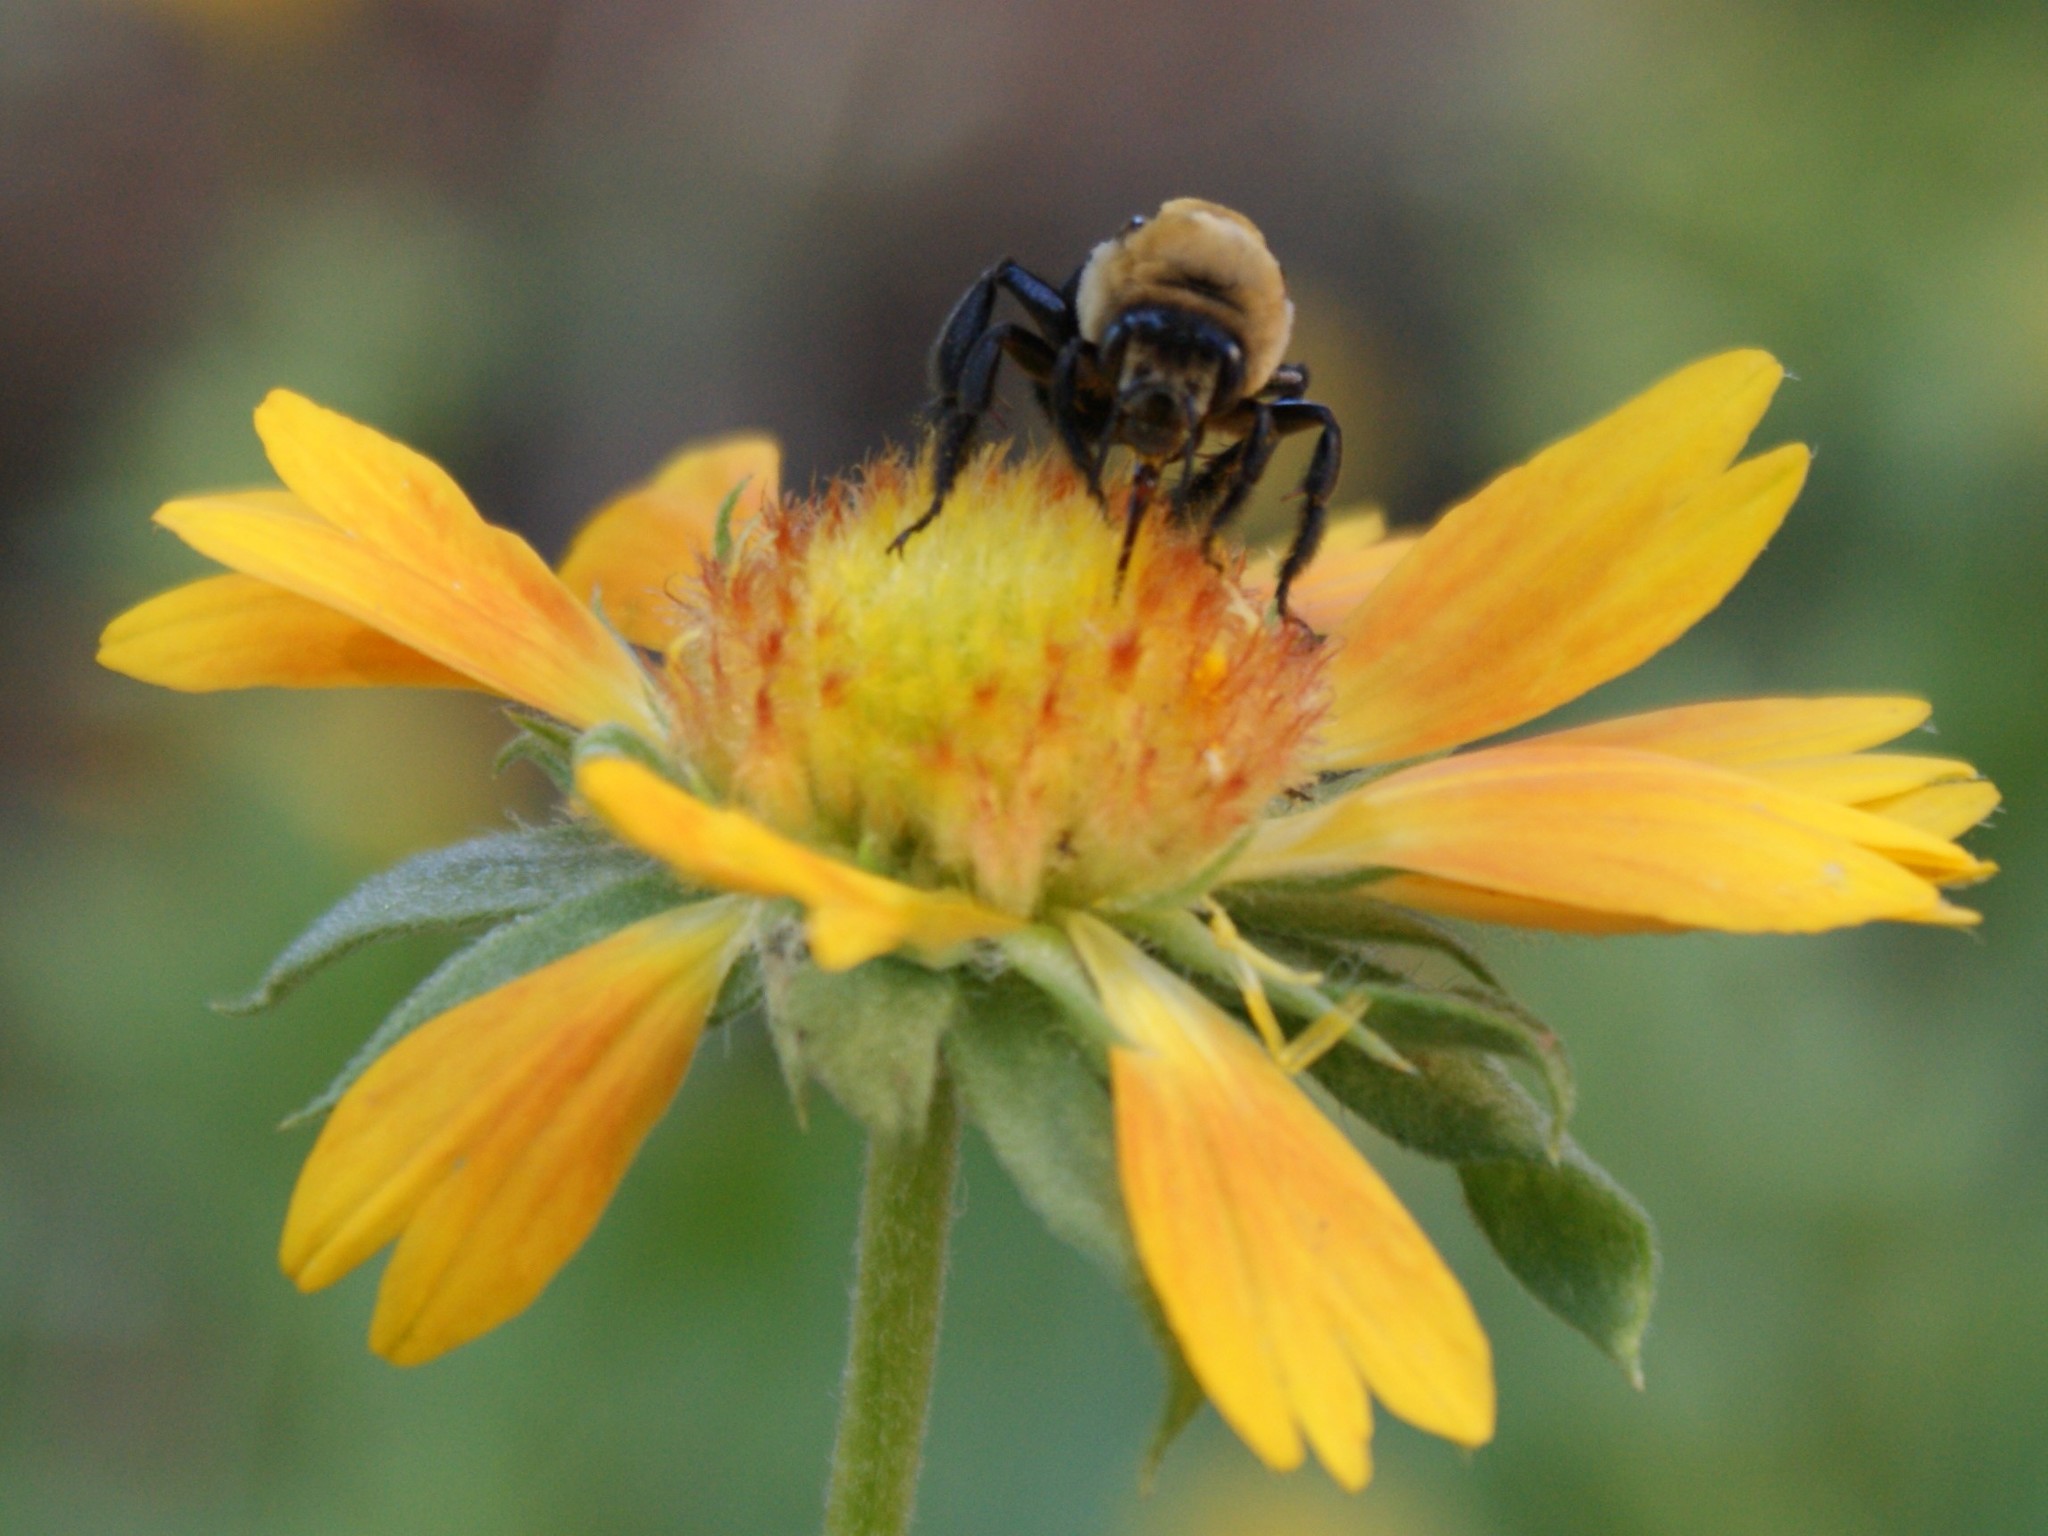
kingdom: Animalia
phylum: Arthropoda
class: Insecta
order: Hymenoptera
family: Apidae
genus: Ptilothrix
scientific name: Ptilothrix bombiformis
